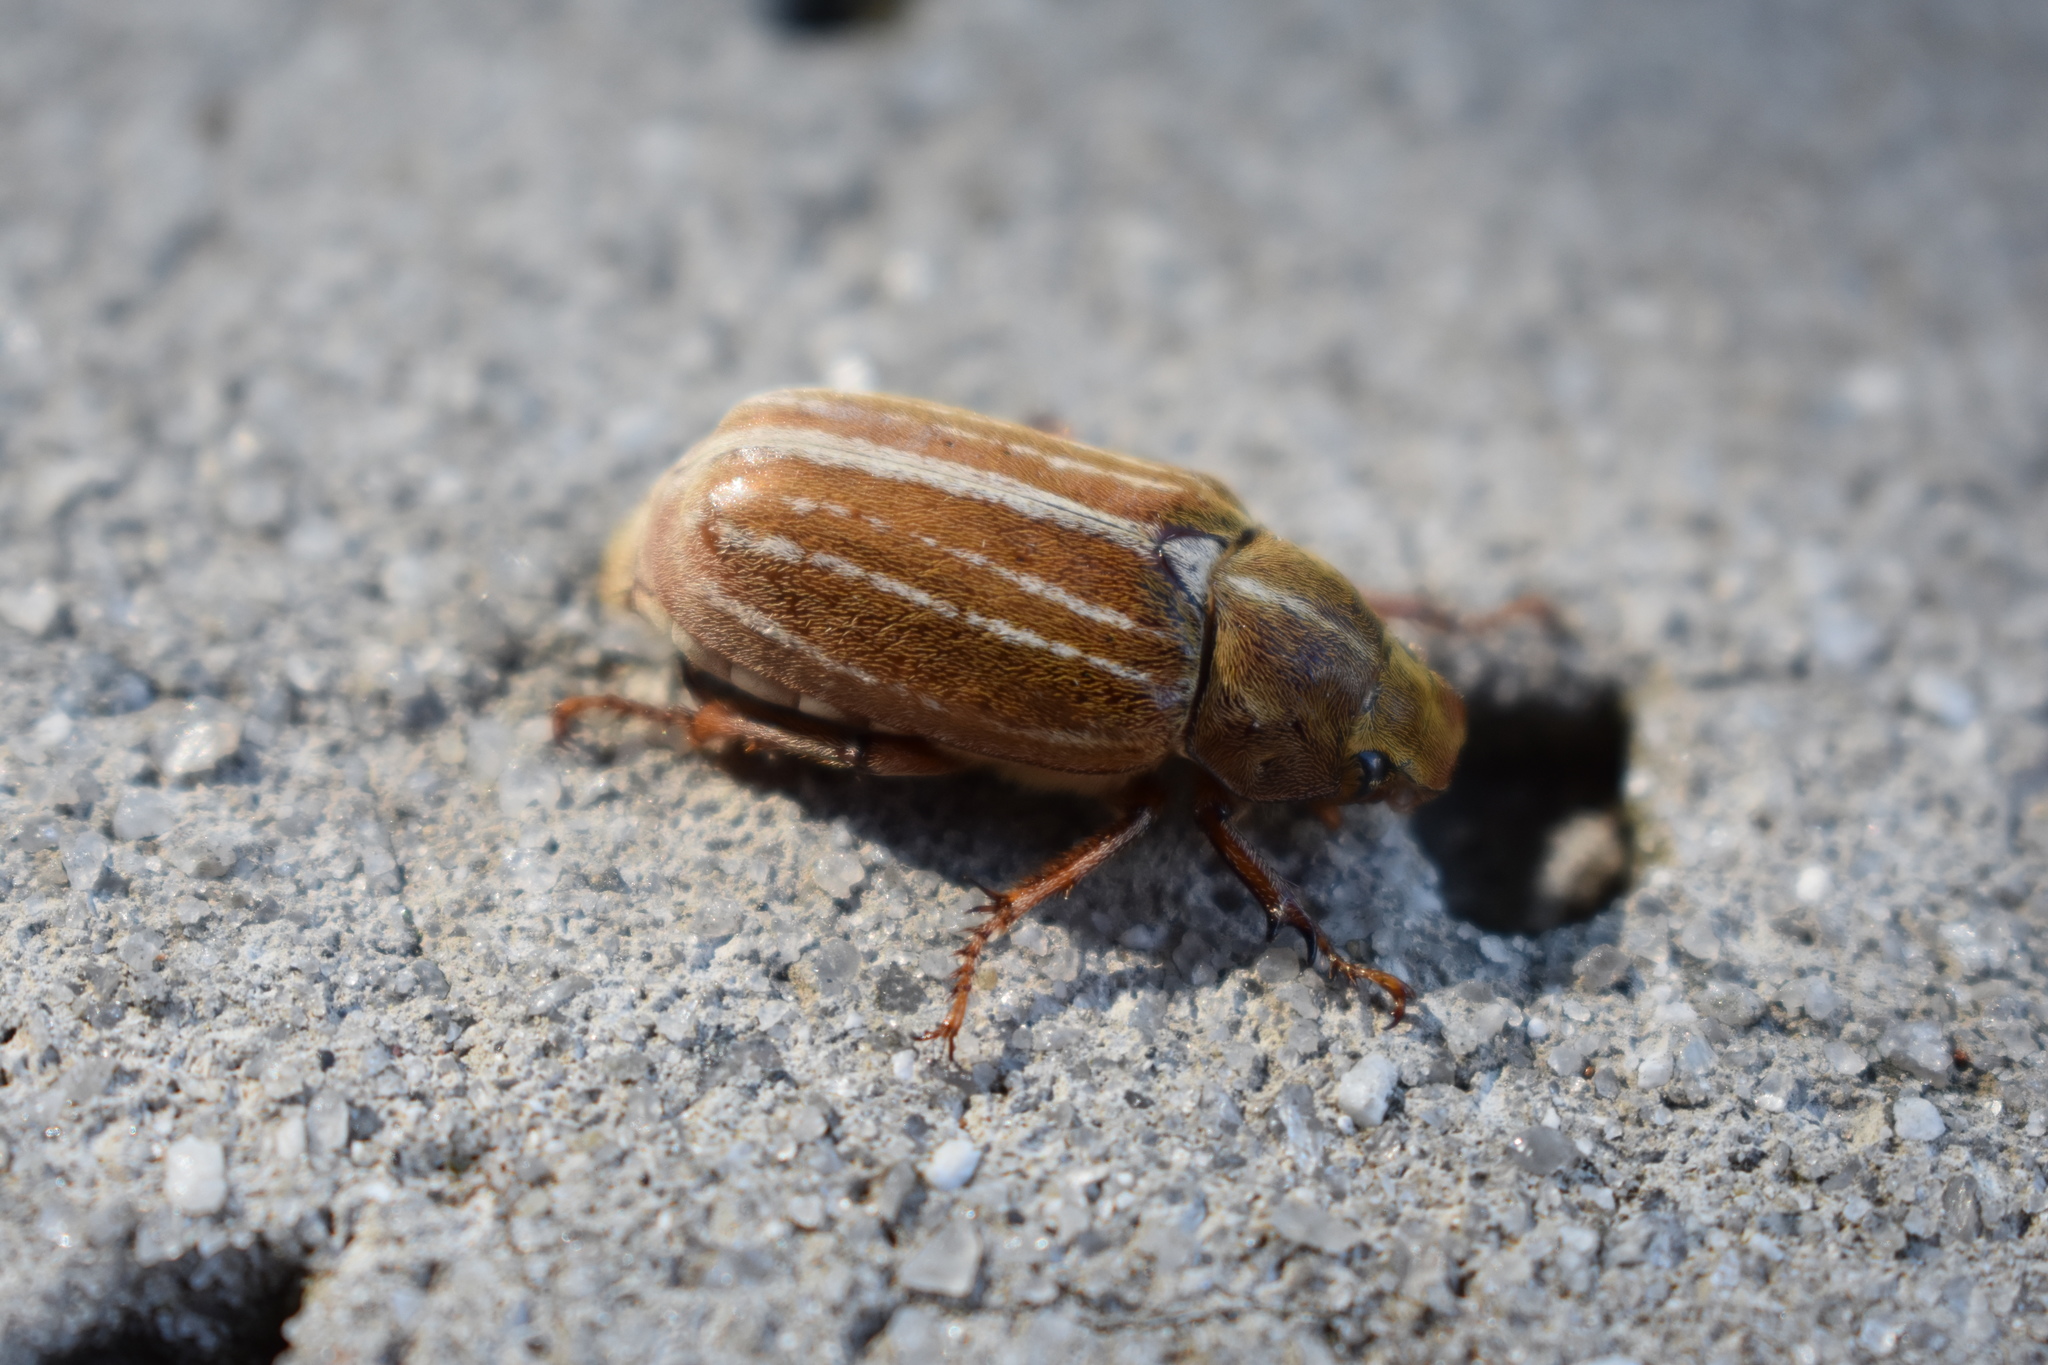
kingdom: Animalia
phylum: Arthropoda
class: Insecta
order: Coleoptera
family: Scarabaeidae
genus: Polyphylla
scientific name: Polyphylla occidentalis
